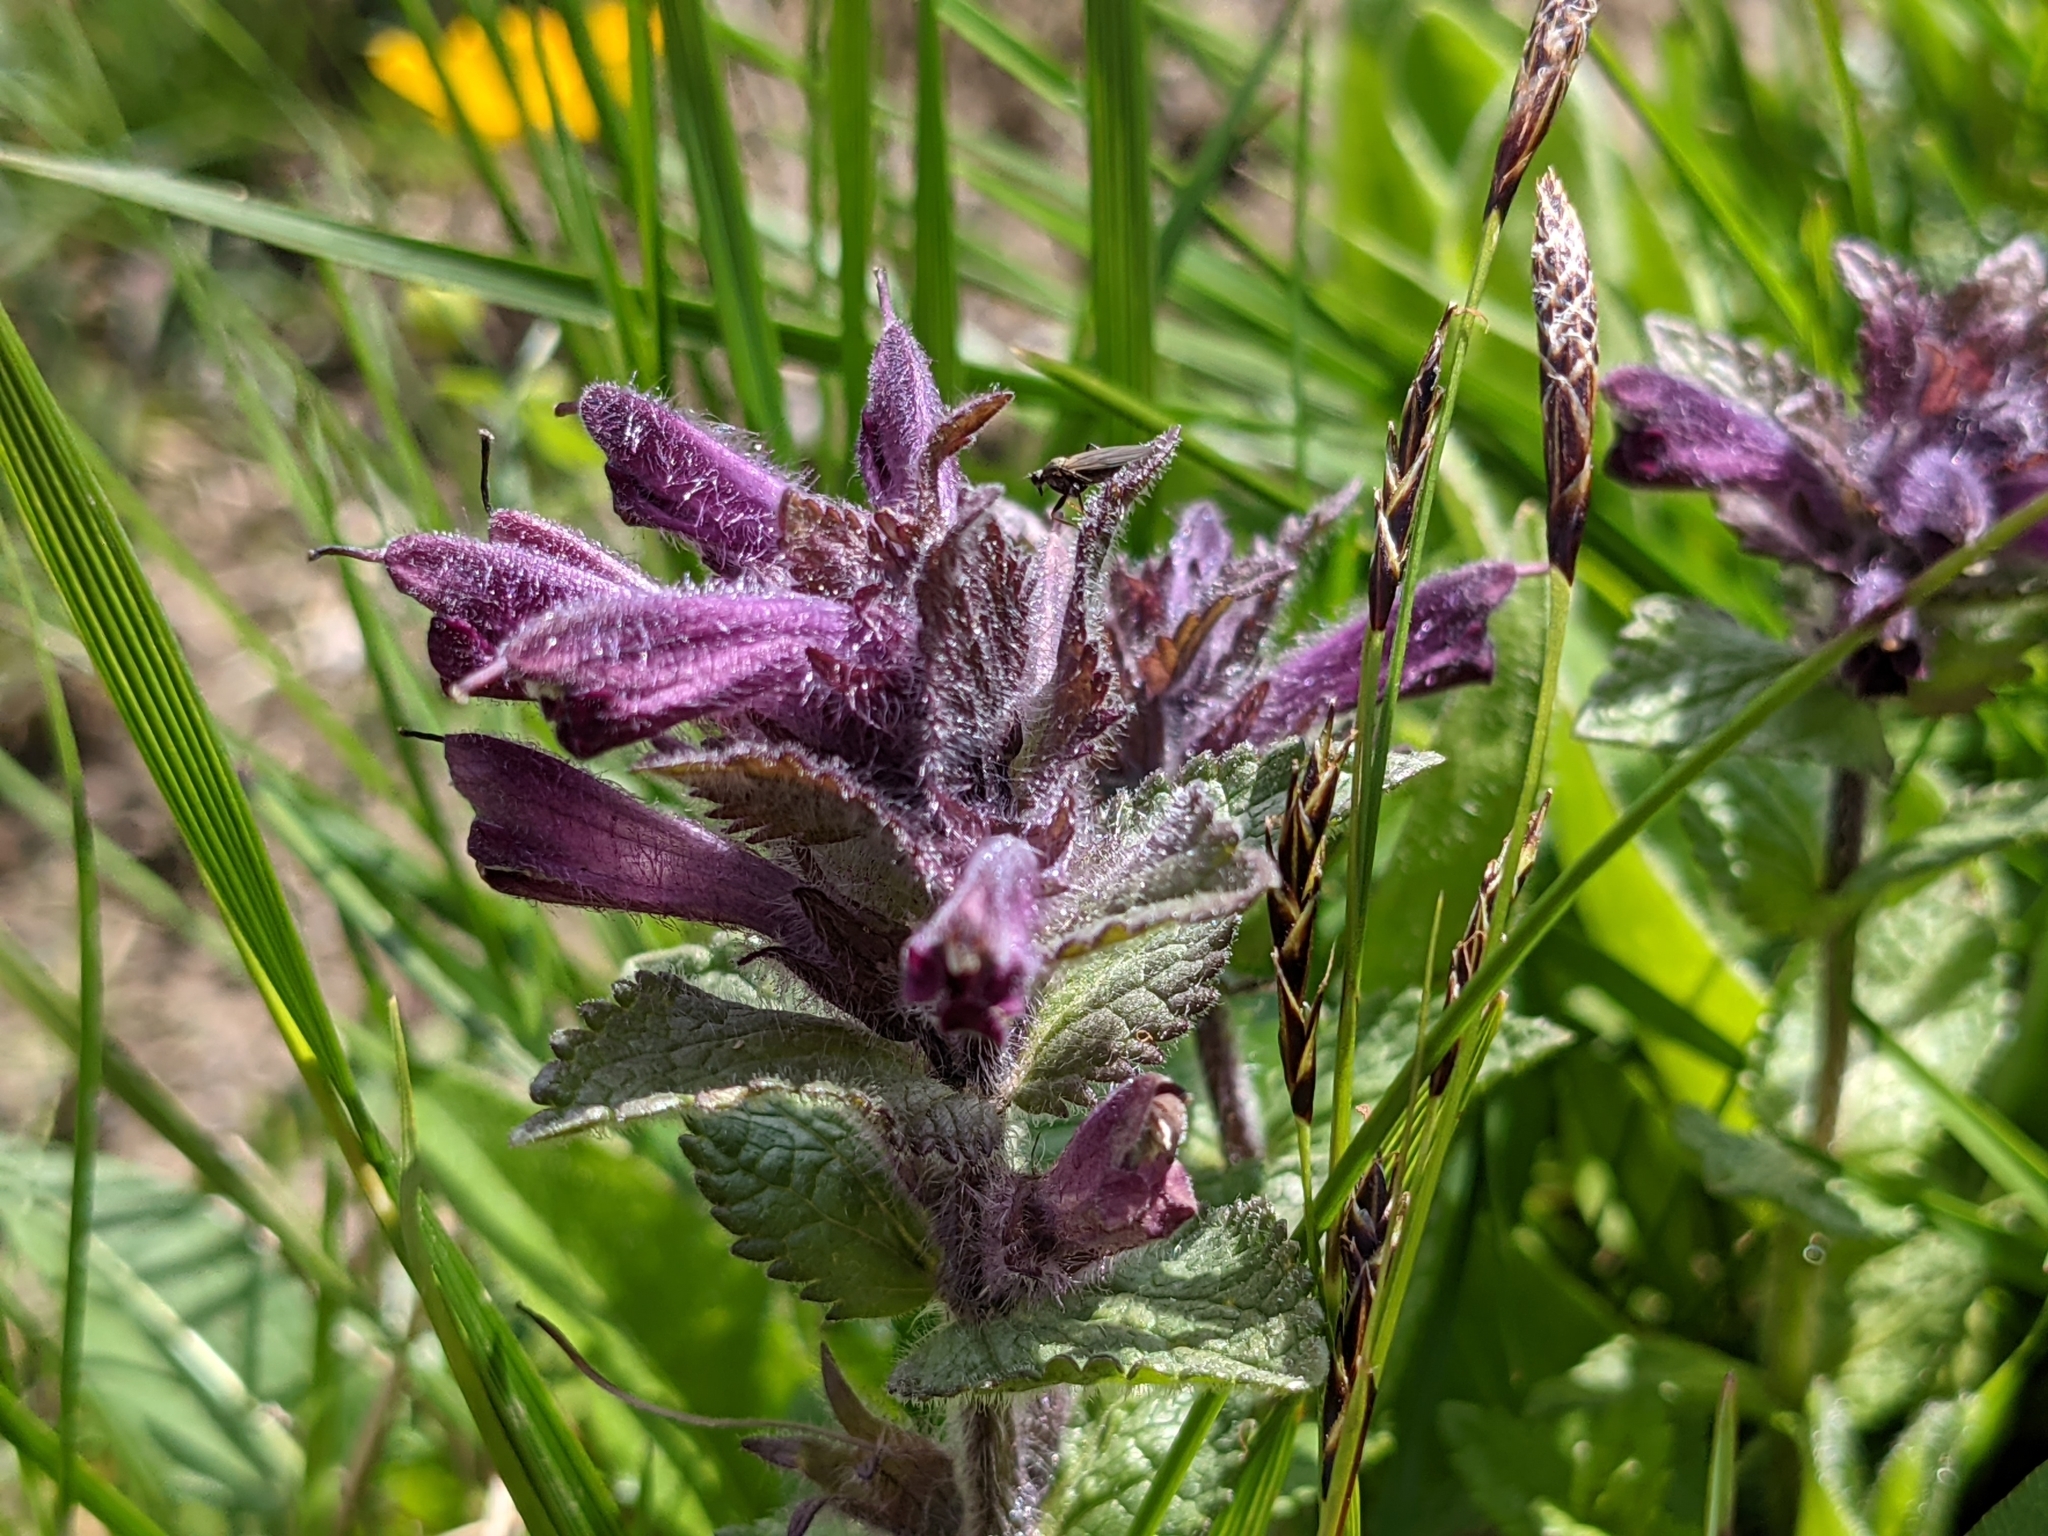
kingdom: Plantae
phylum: Tracheophyta
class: Magnoliopsida
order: Lamiales
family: Orobanchaceae
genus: Bartsia
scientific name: Bartsia alpina
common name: Alpine bartsia
